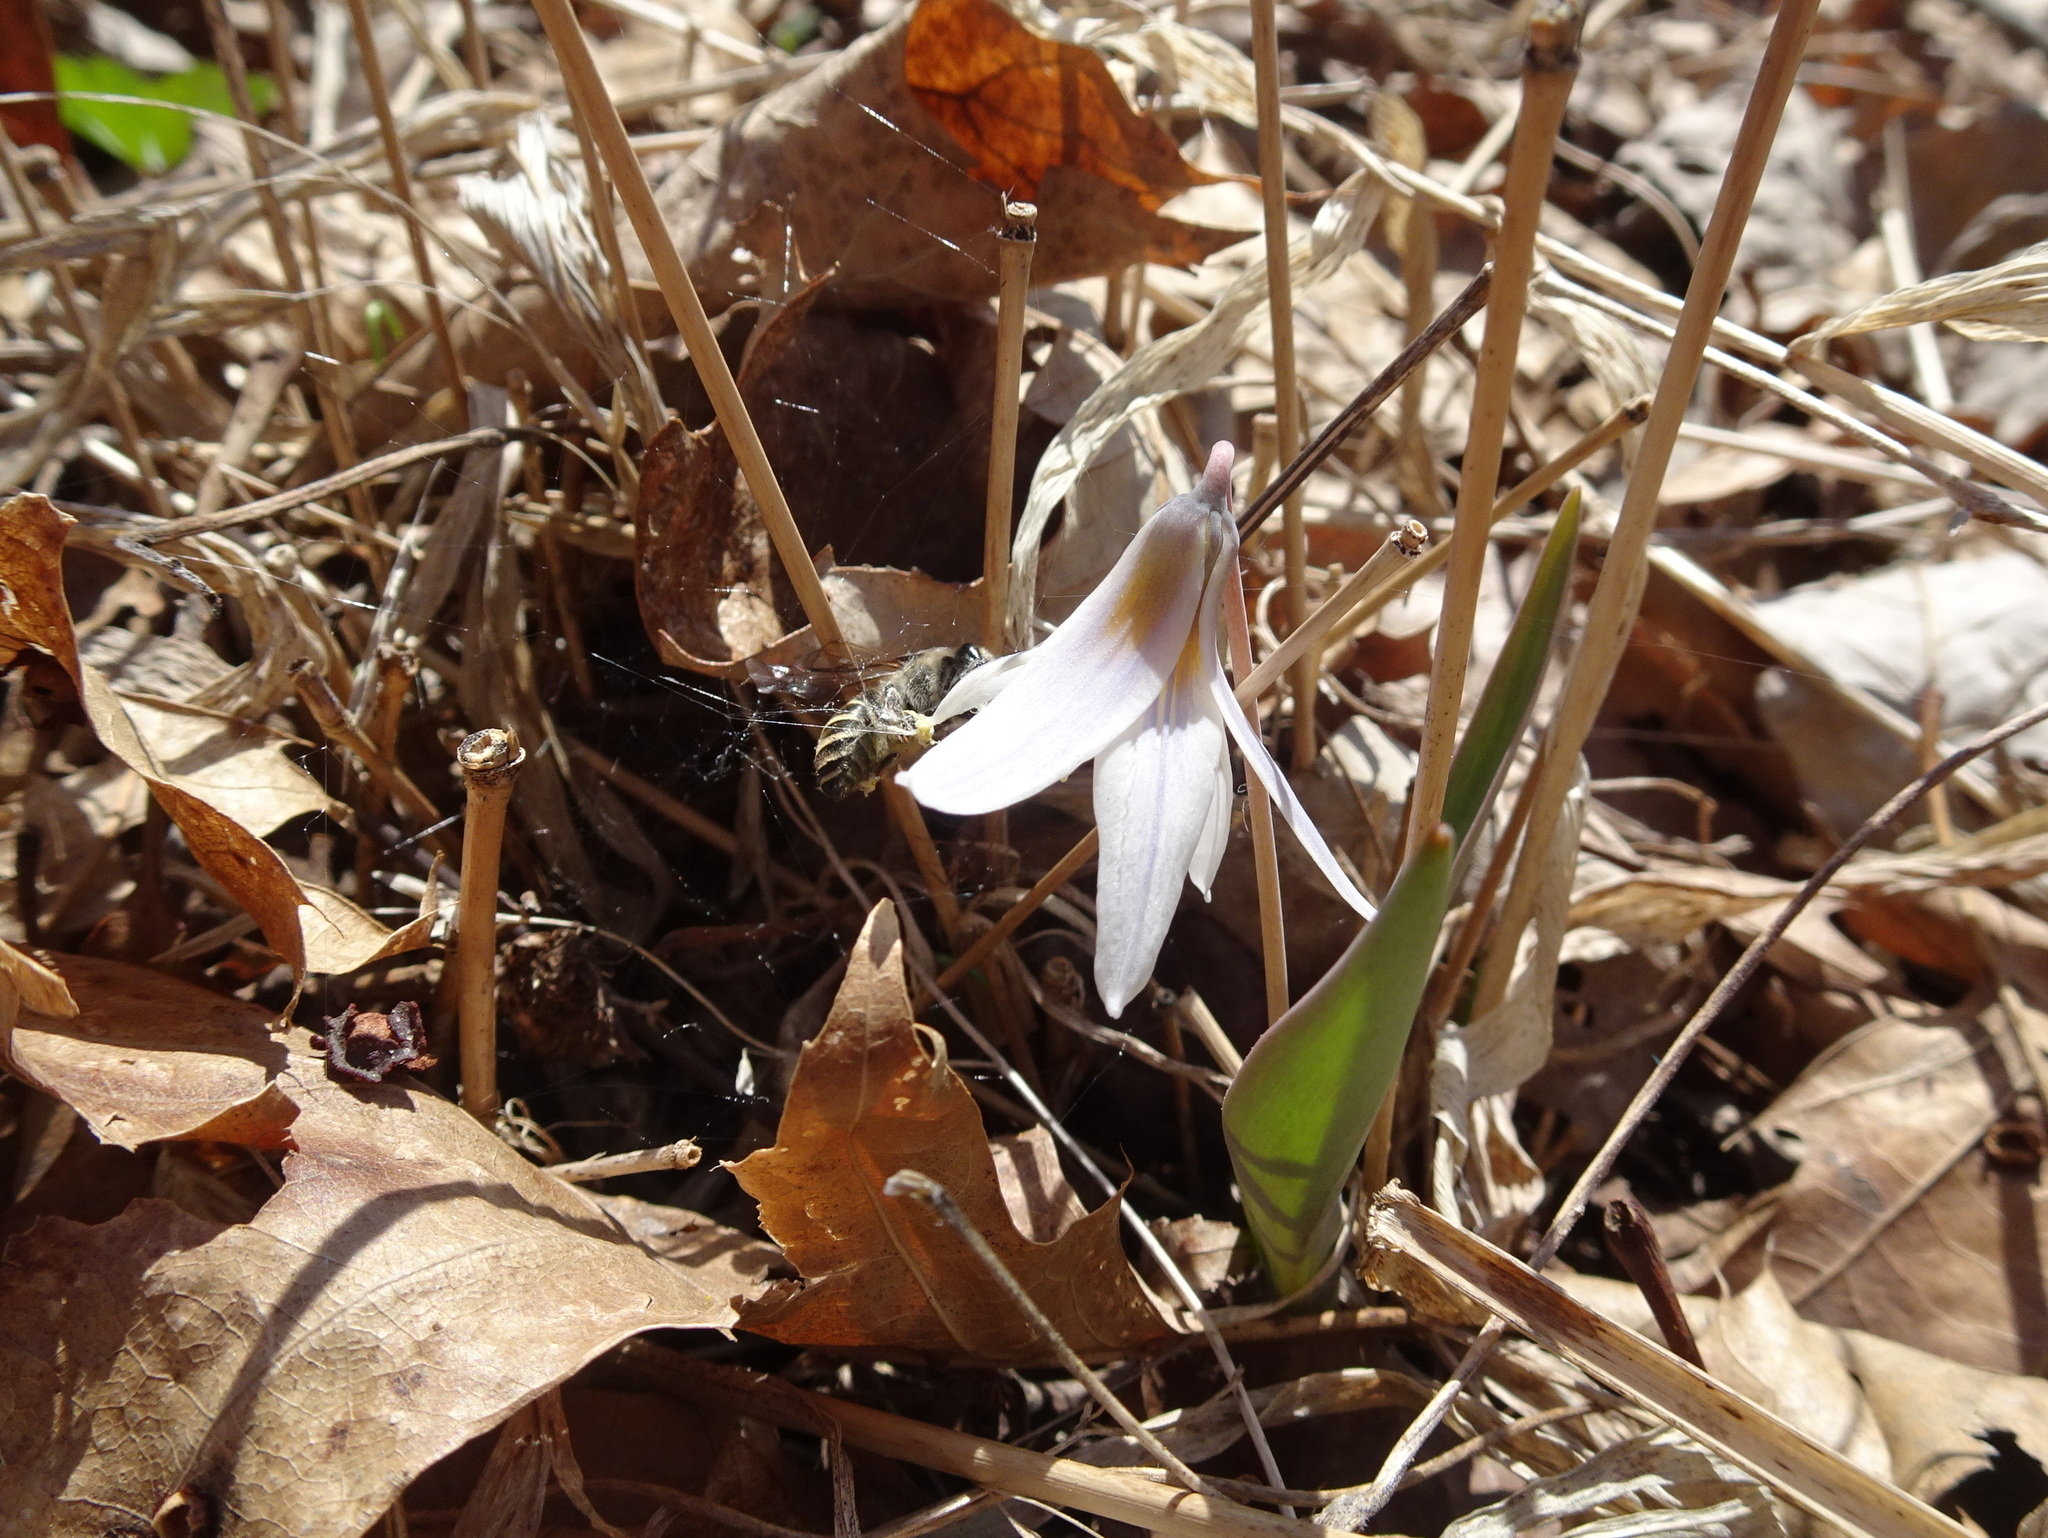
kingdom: Plantae
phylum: Tracheophyta
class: Liliopsida
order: Liliales
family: Liliaceae
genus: Erythronium
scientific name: Erythronium mesochoreum
